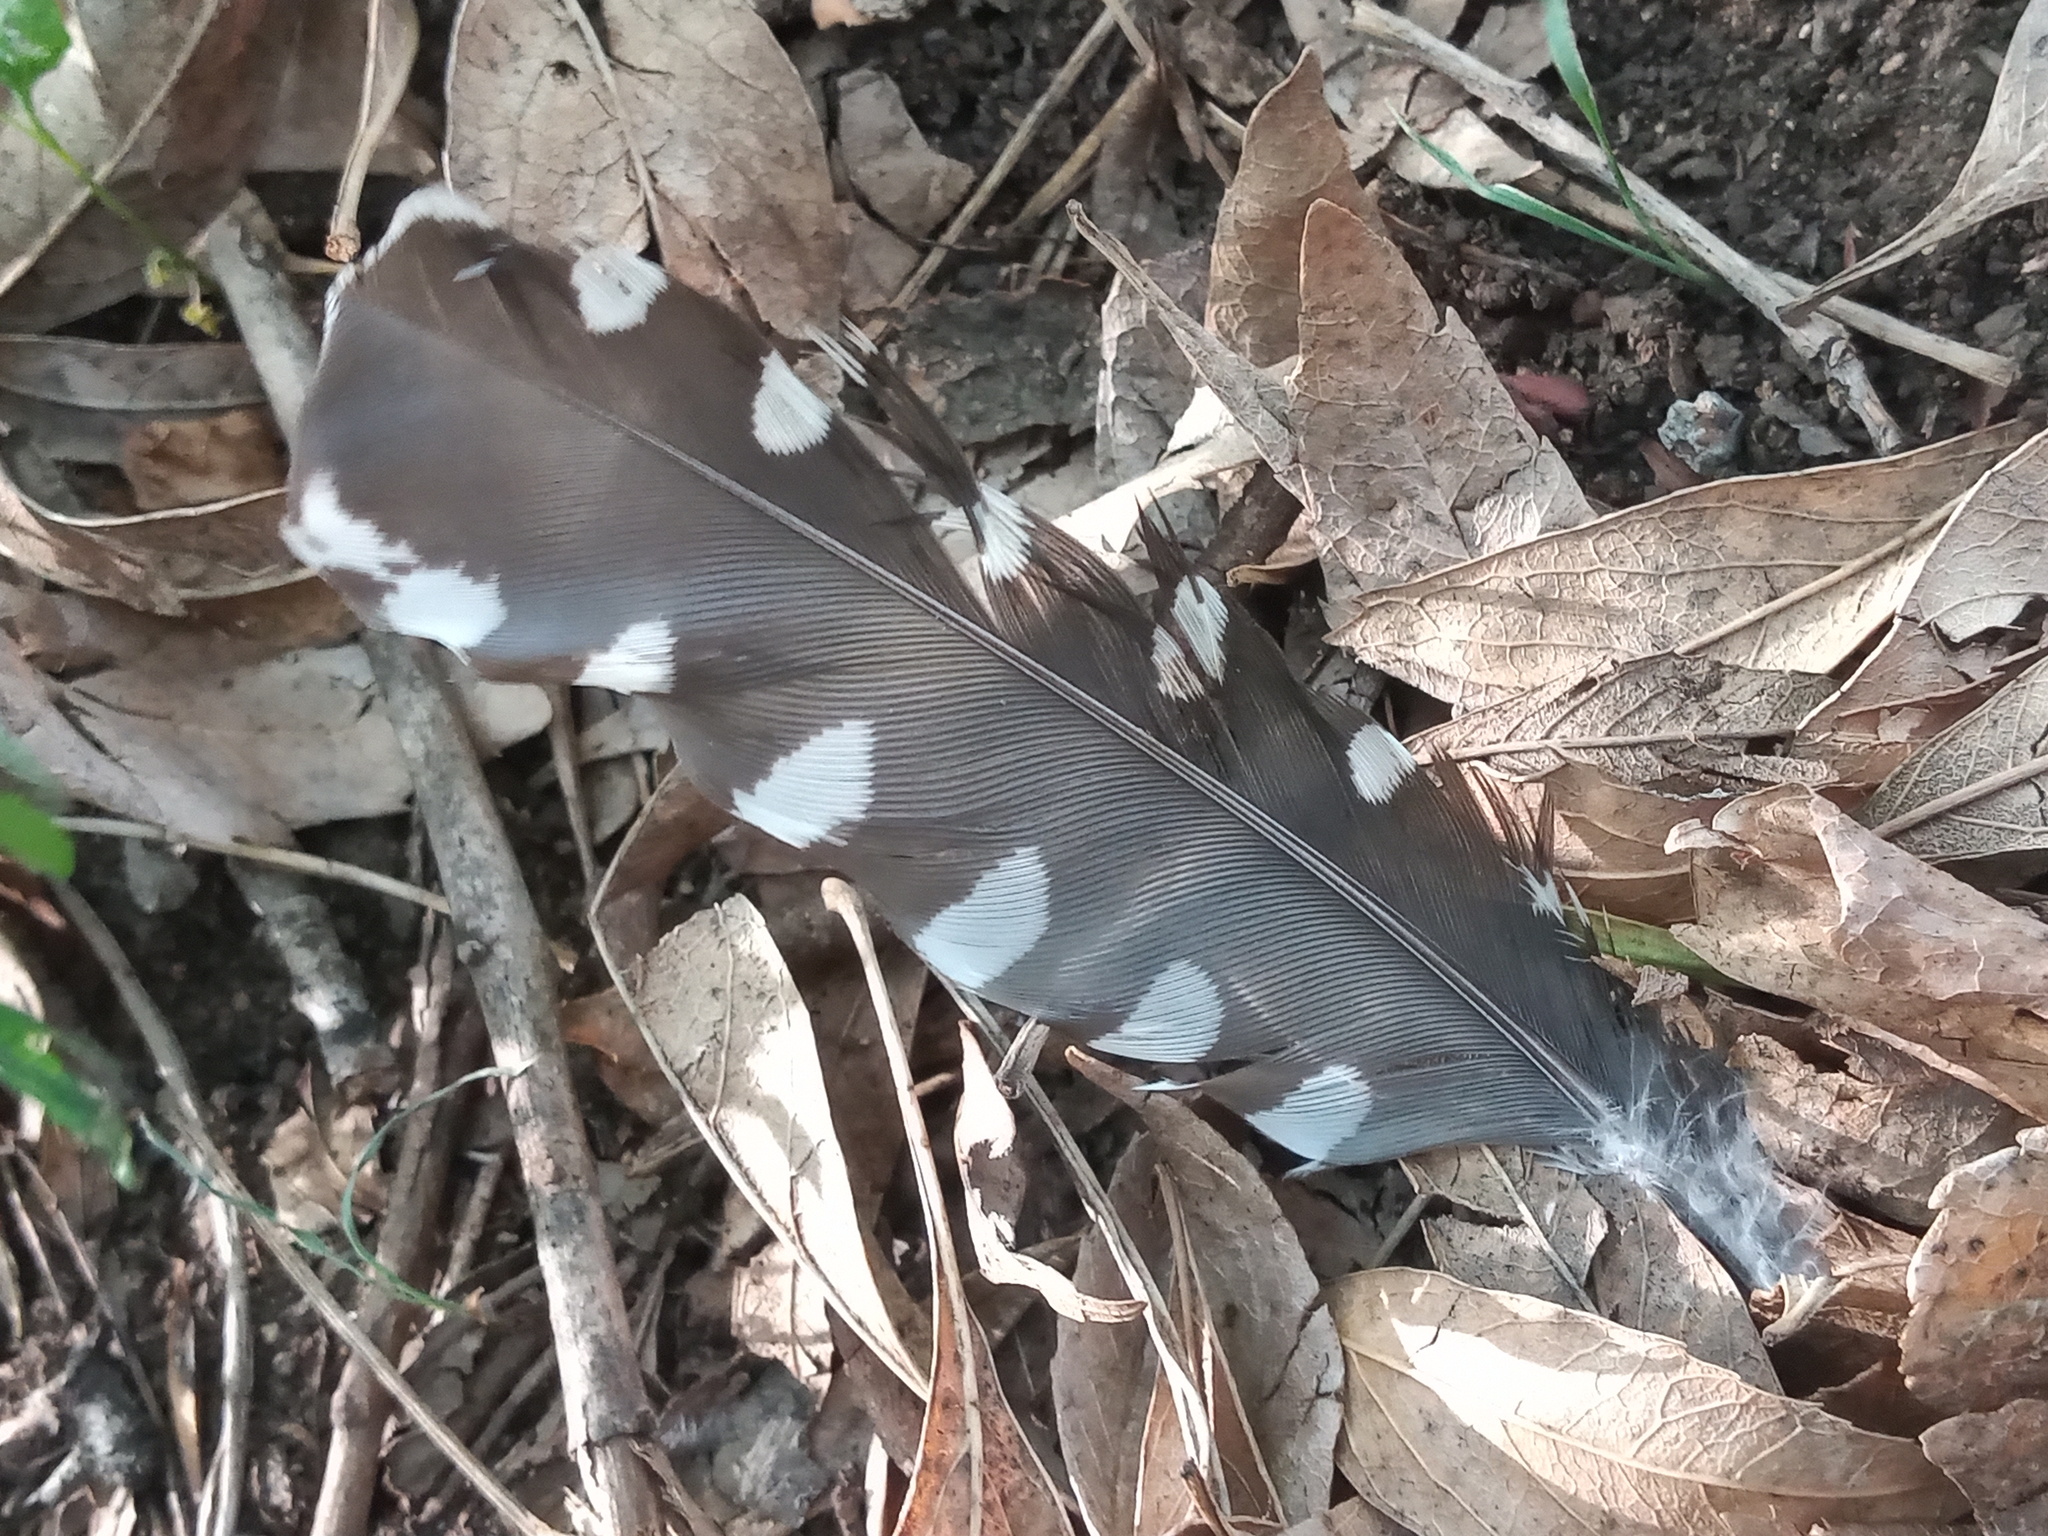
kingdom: Animalia
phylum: Chordata
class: Aves
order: Piciformes
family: Picidae
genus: Melanerpes
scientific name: Melanerpes aurifrons
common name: Golden-fronted woodpecker
